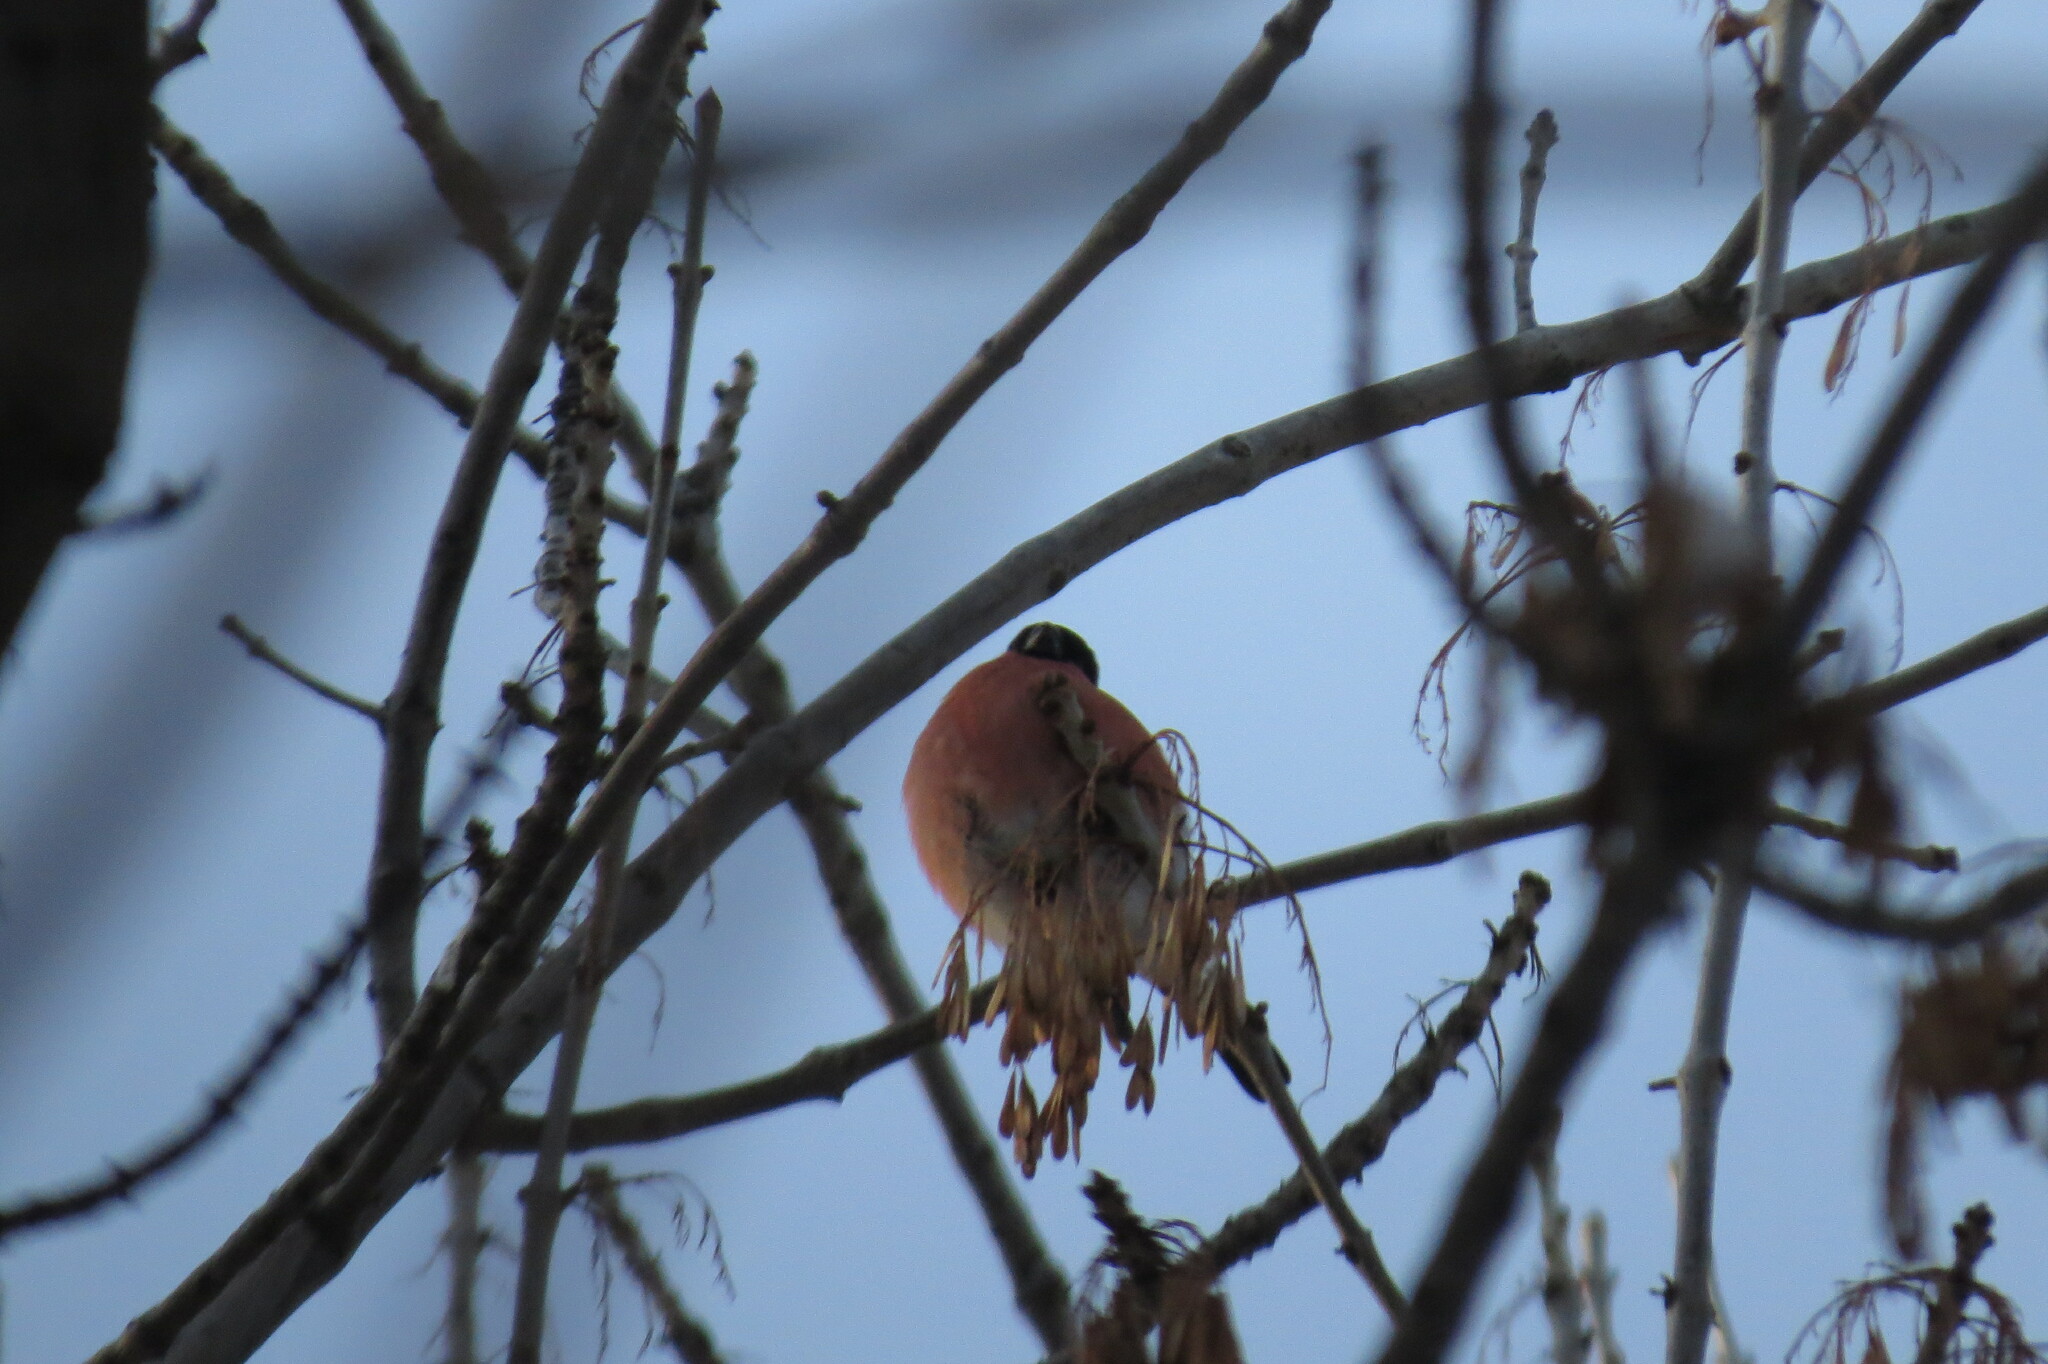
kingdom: Animalia
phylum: Chordata
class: Aves
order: Passeriformes
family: Fringillidae
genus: Pyrrhula
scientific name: Pyrrhula pyrrhula
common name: Eurasian bullfinch
